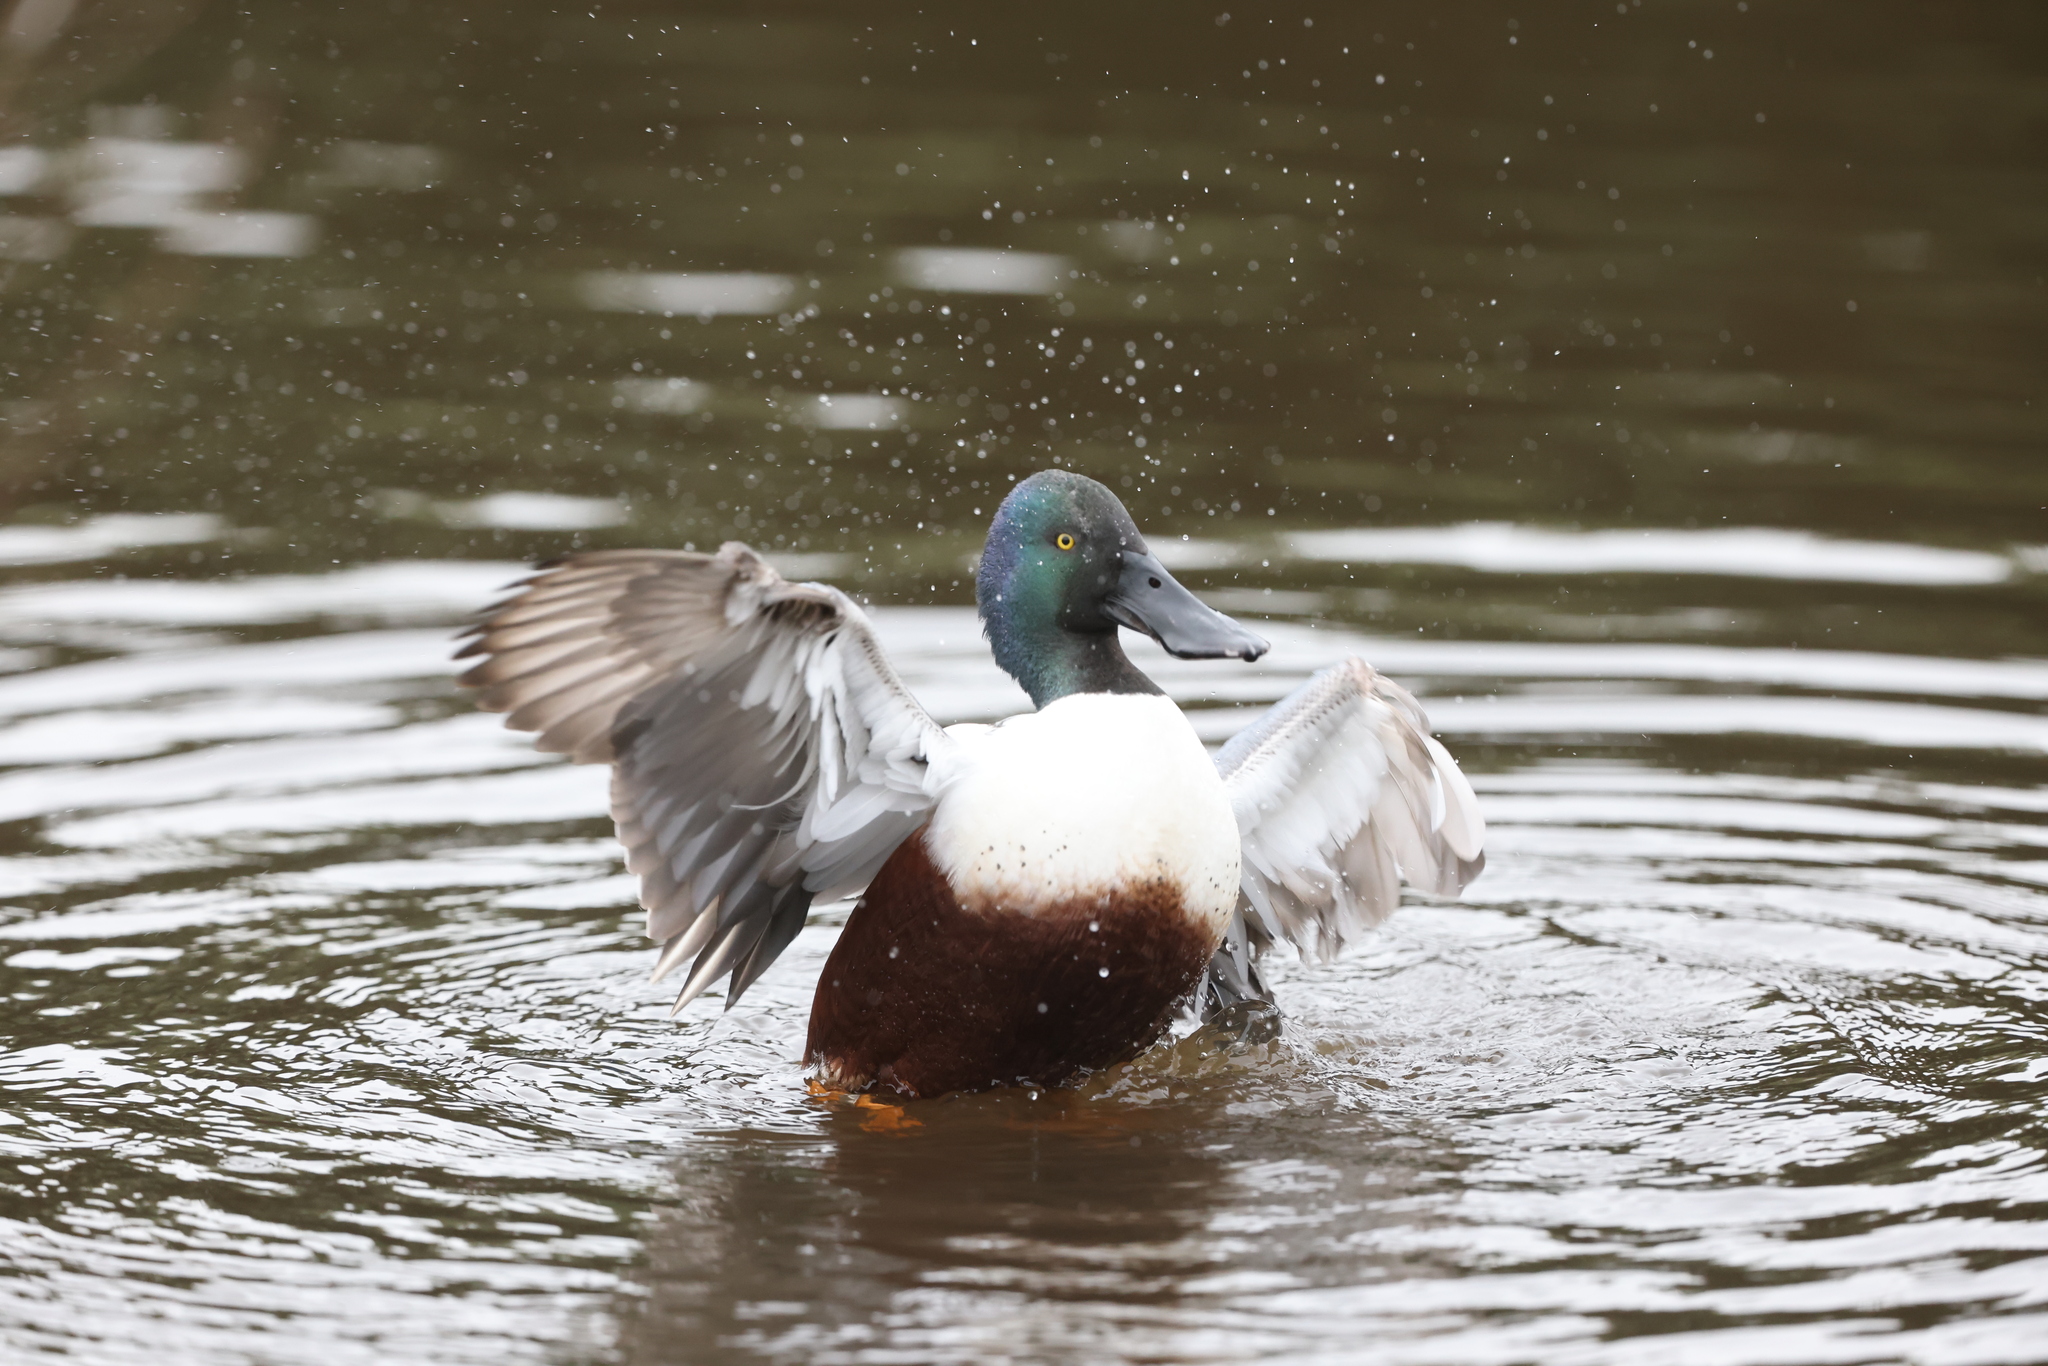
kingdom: Animalia
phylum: Chordata
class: Aves
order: Anseriformes
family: Anatidae
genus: Spatula
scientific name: Spatula clypeata
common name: Northern shoveler
